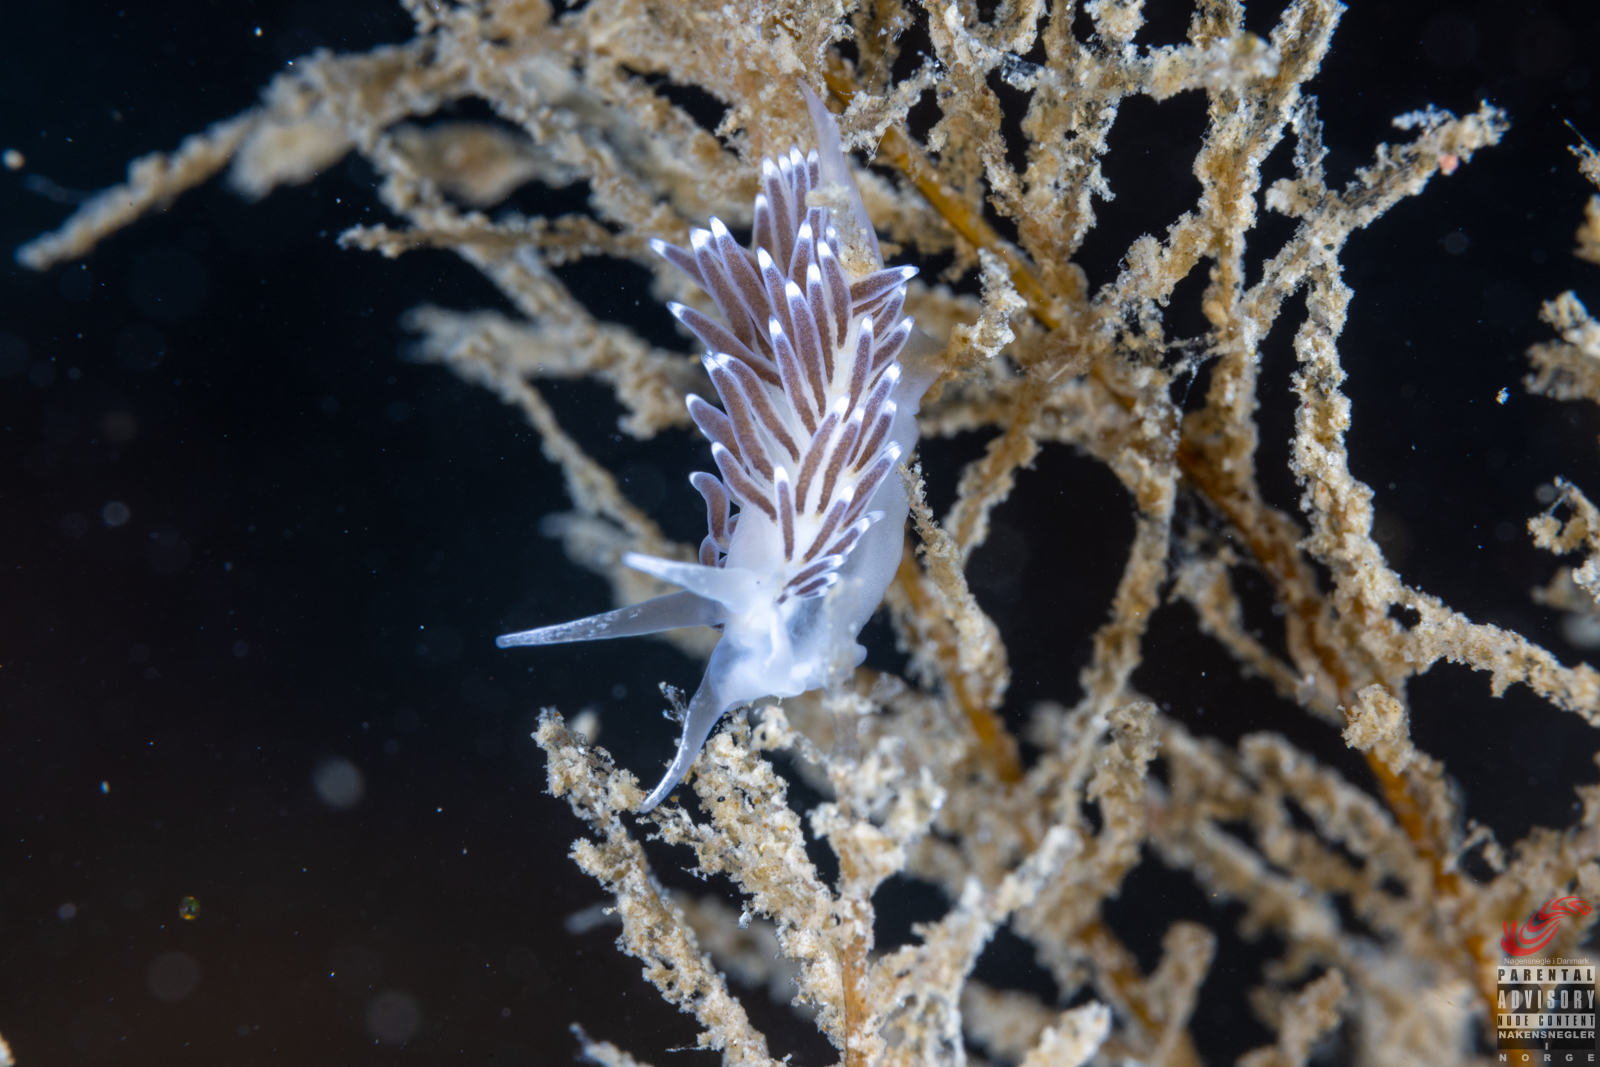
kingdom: Animalia
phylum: Mollusca
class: Gastropoda
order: Nudibranchia
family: Cuthonellidae
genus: Cuthonella
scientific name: Cuthonella concinna
